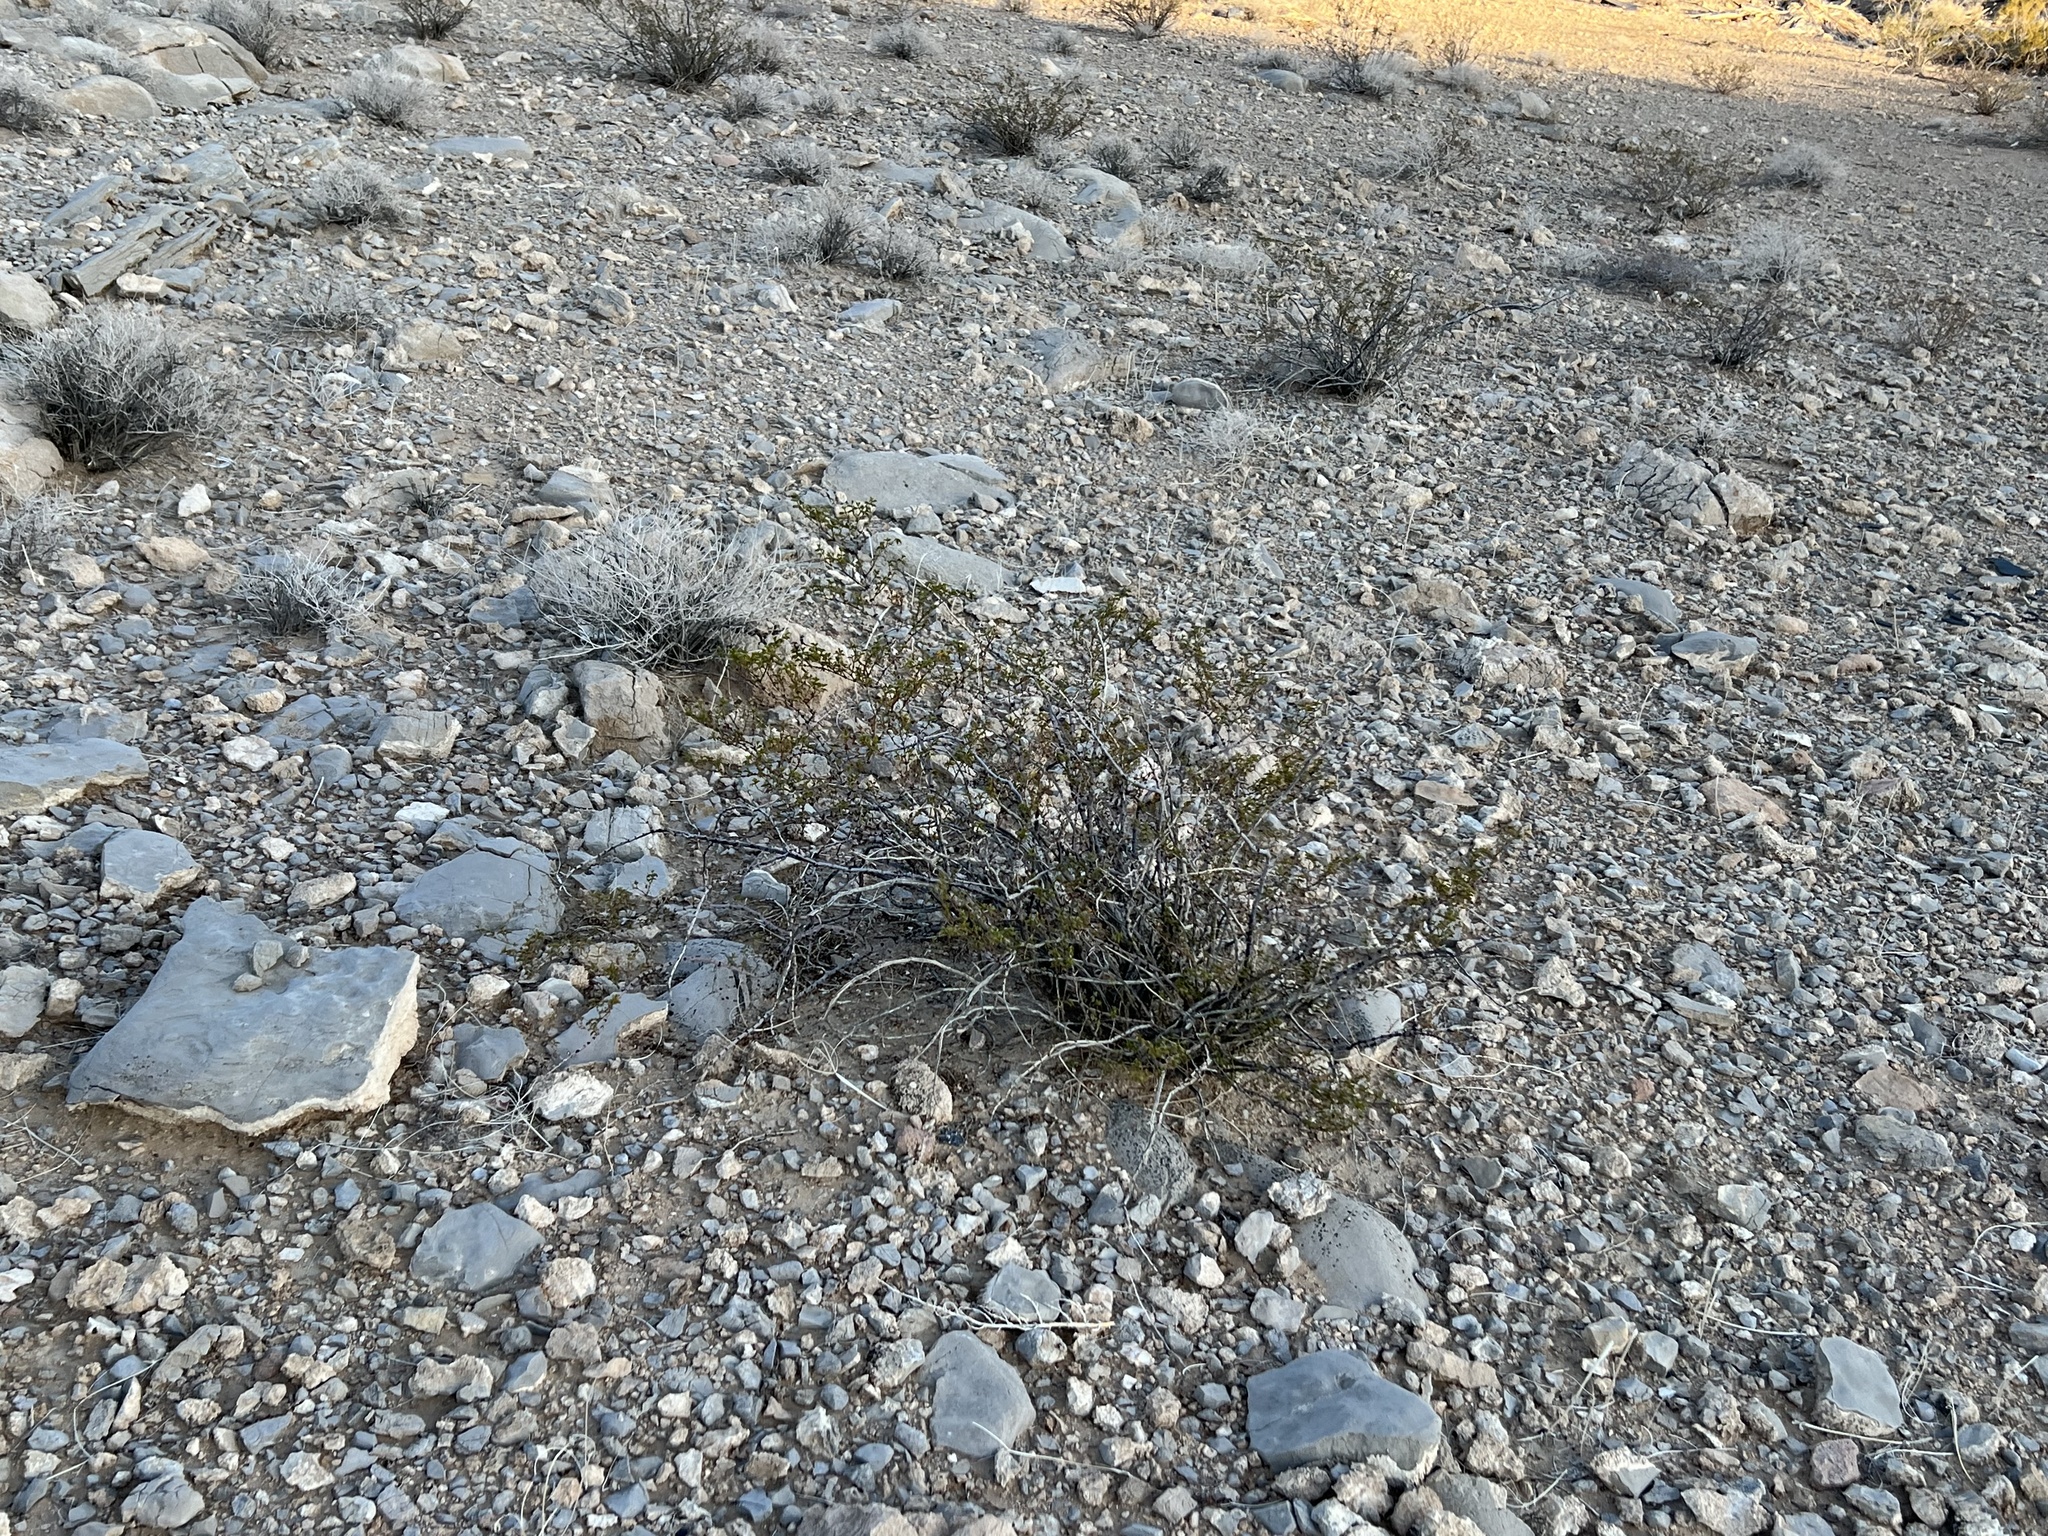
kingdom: Plantae
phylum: Tracheophyta
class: Magnoliopsida
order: Zygophyllales
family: Zygophyllaceae
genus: Larrea
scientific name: Larrea tridentata
